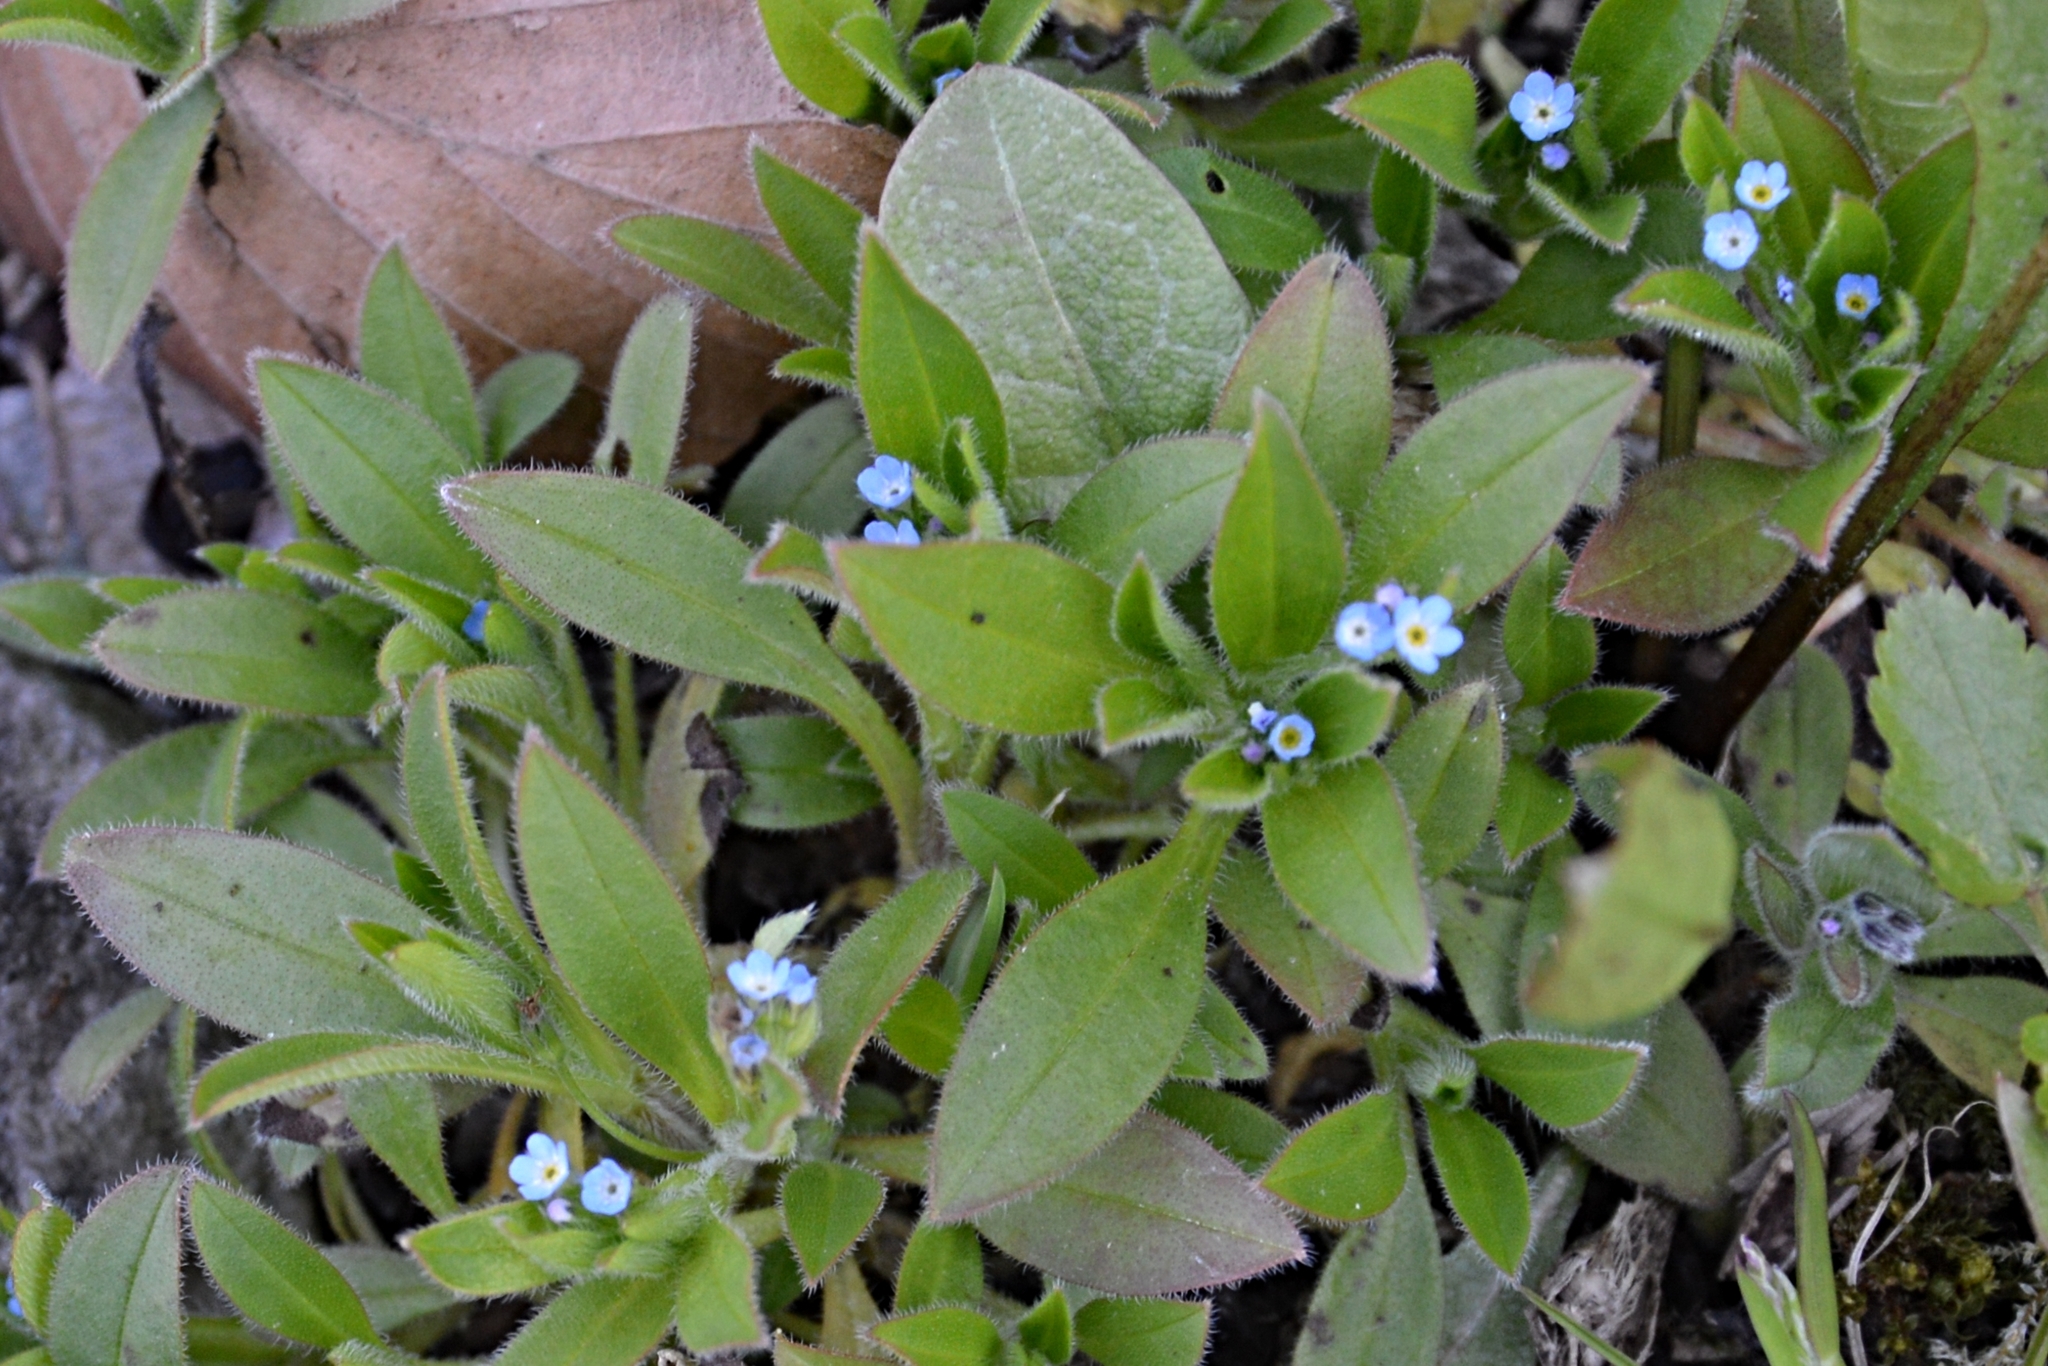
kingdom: Plantae
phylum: Tracheophyta
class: Magnoliopsida
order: Boraginales
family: Boraginaceae
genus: Myosotis
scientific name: Myosotis sparsiflora
